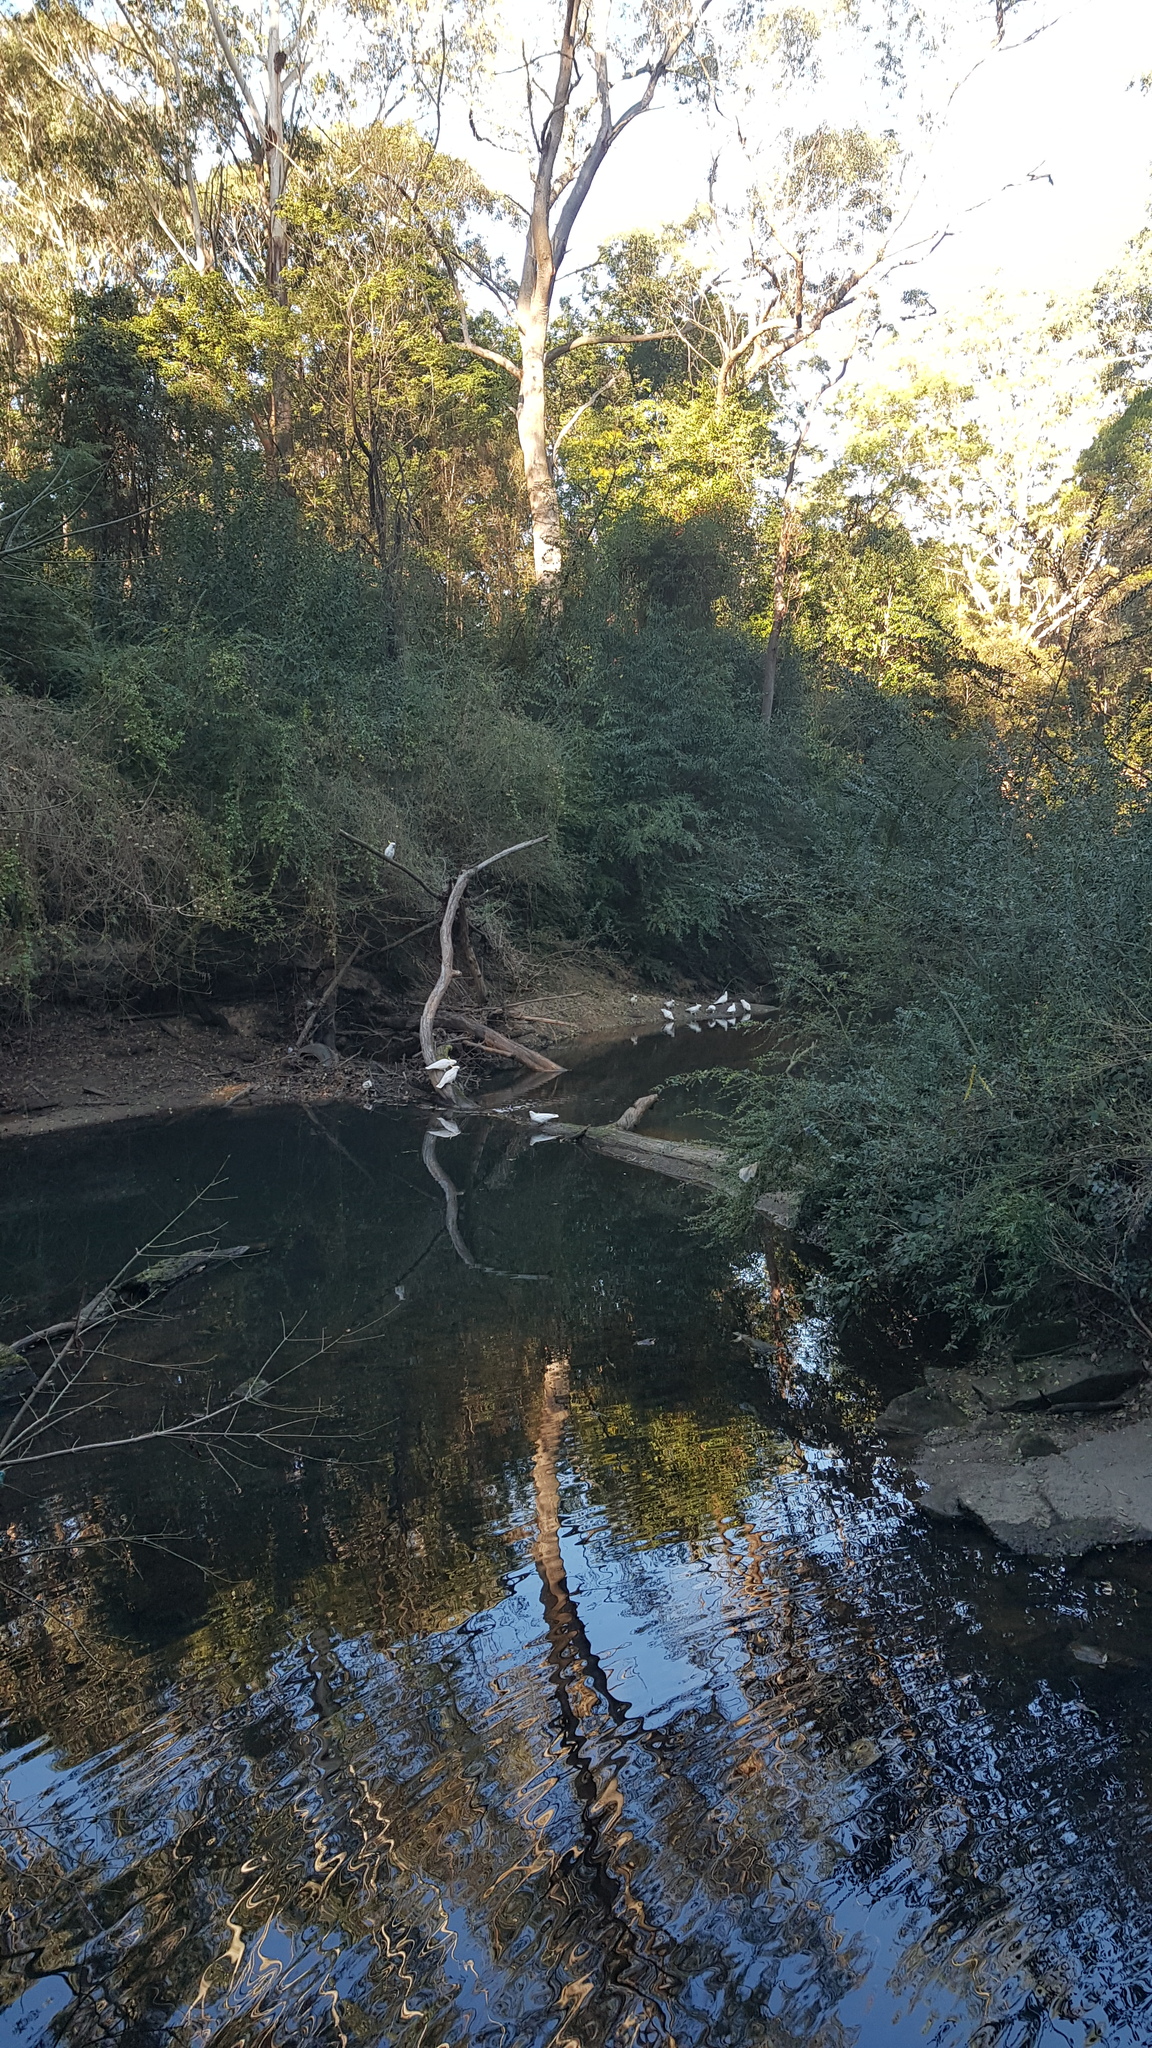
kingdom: Animalia
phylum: Chordata
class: Aves
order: Psittaciformes
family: Psittacidae
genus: Cacatua
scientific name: Cacatua galerita
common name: Sulphur-crested cockatoo
